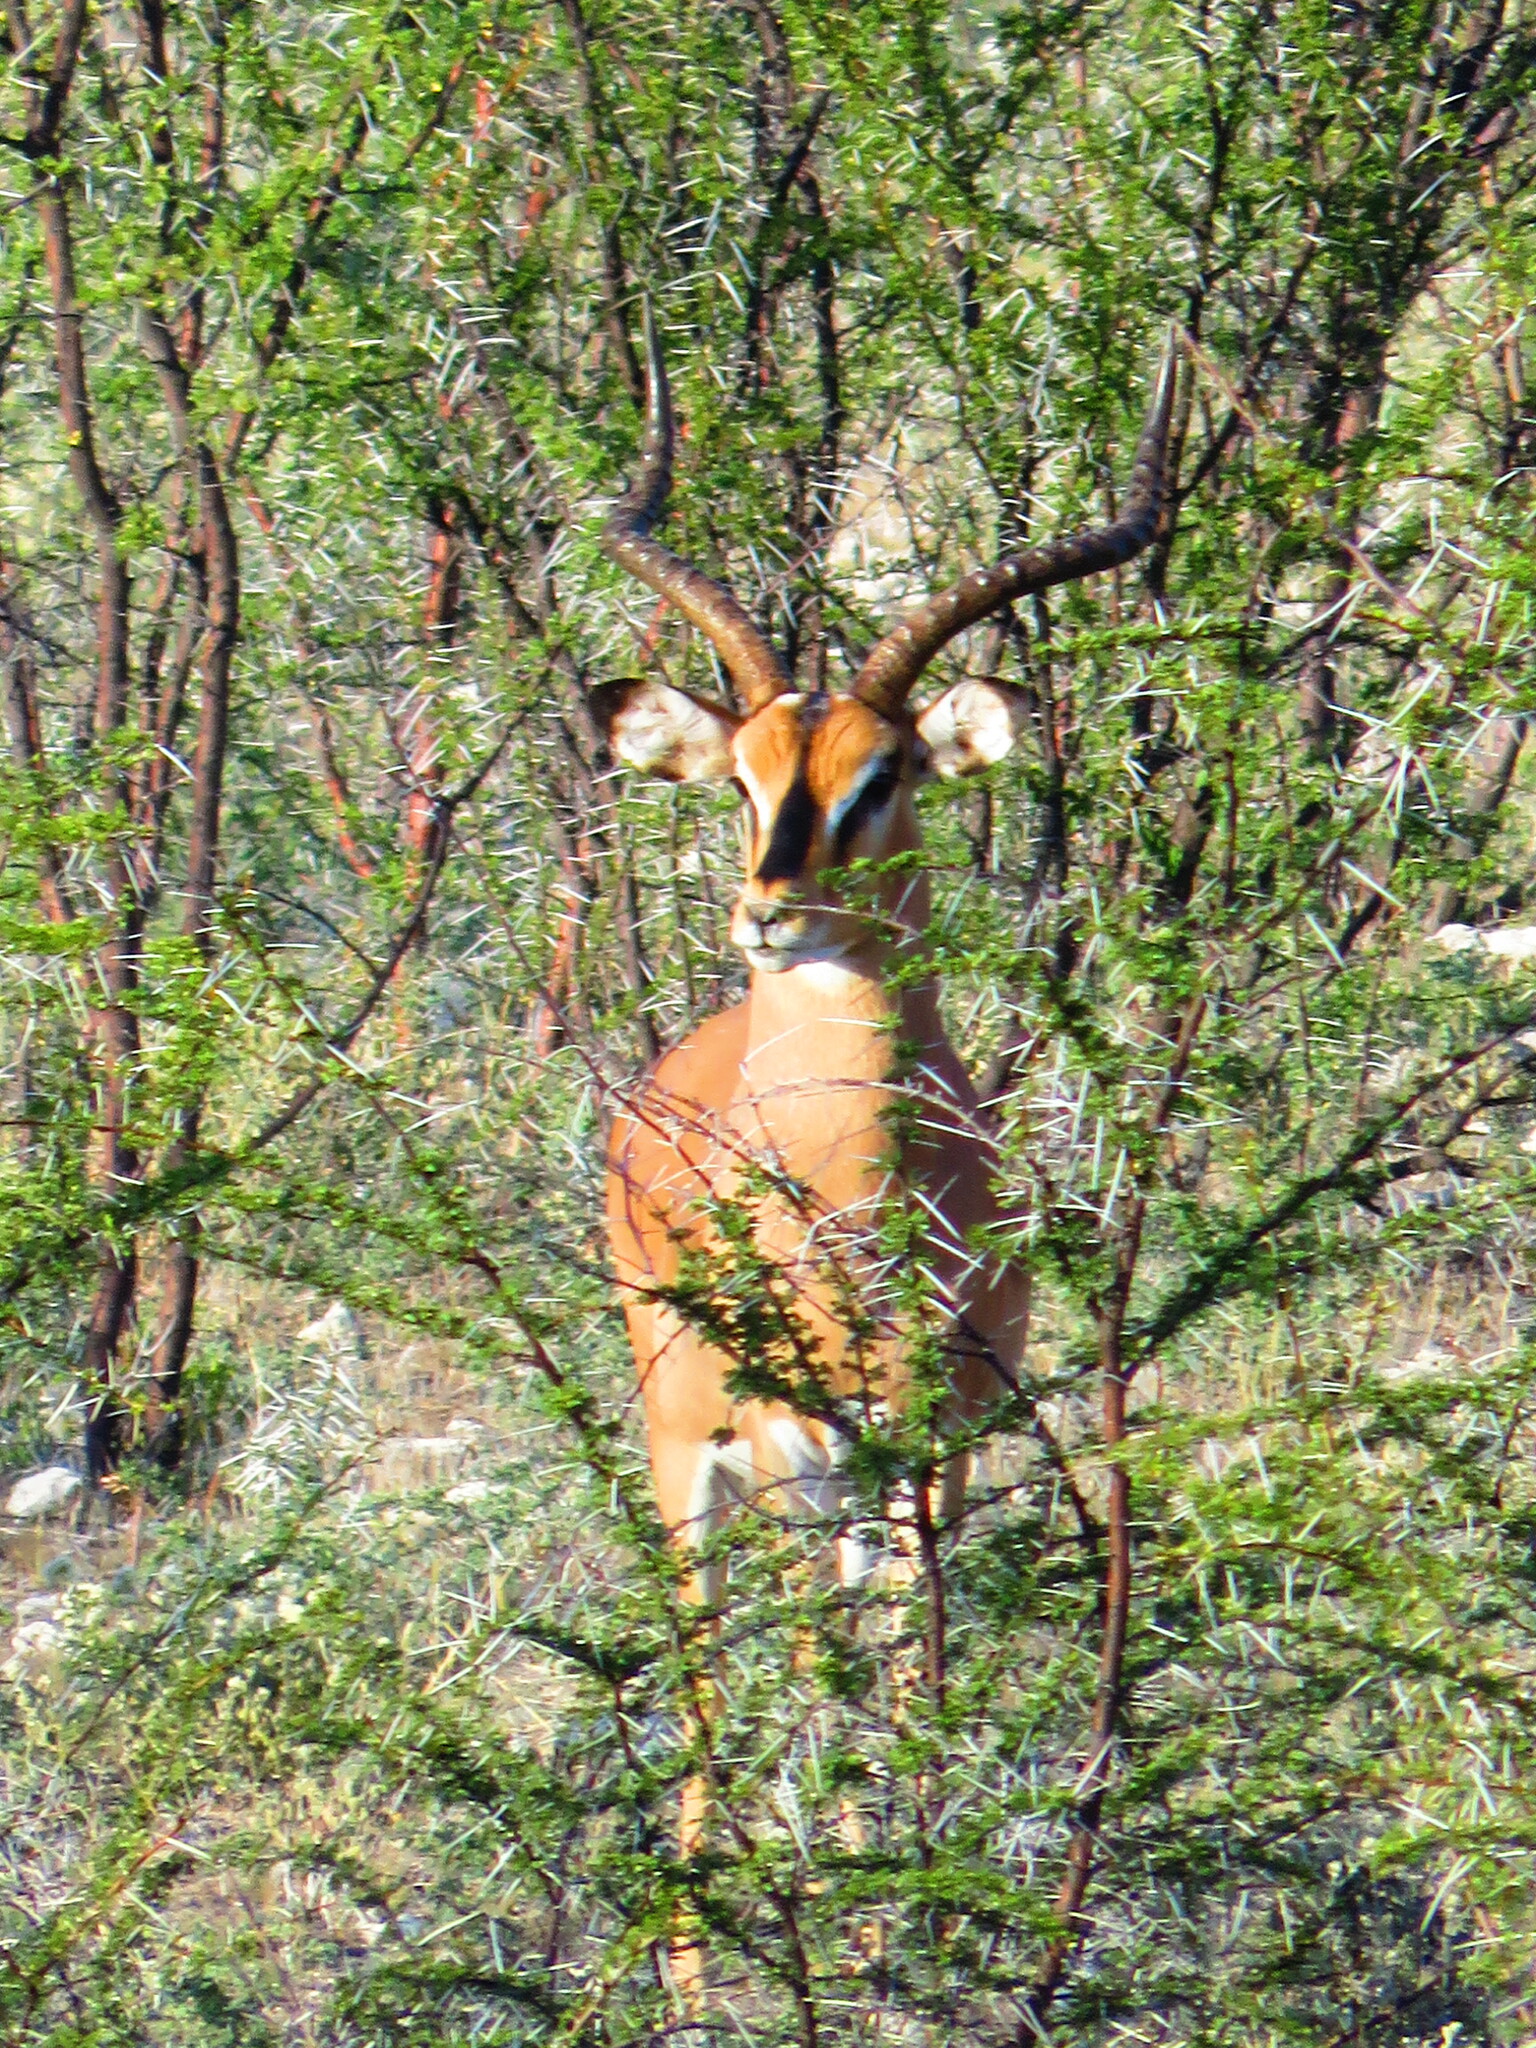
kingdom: Animalia
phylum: Chordata
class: Mammalia
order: Artiodactyla
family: Bovidae
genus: Aepyceros
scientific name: Aepyceros melampus
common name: Impala
